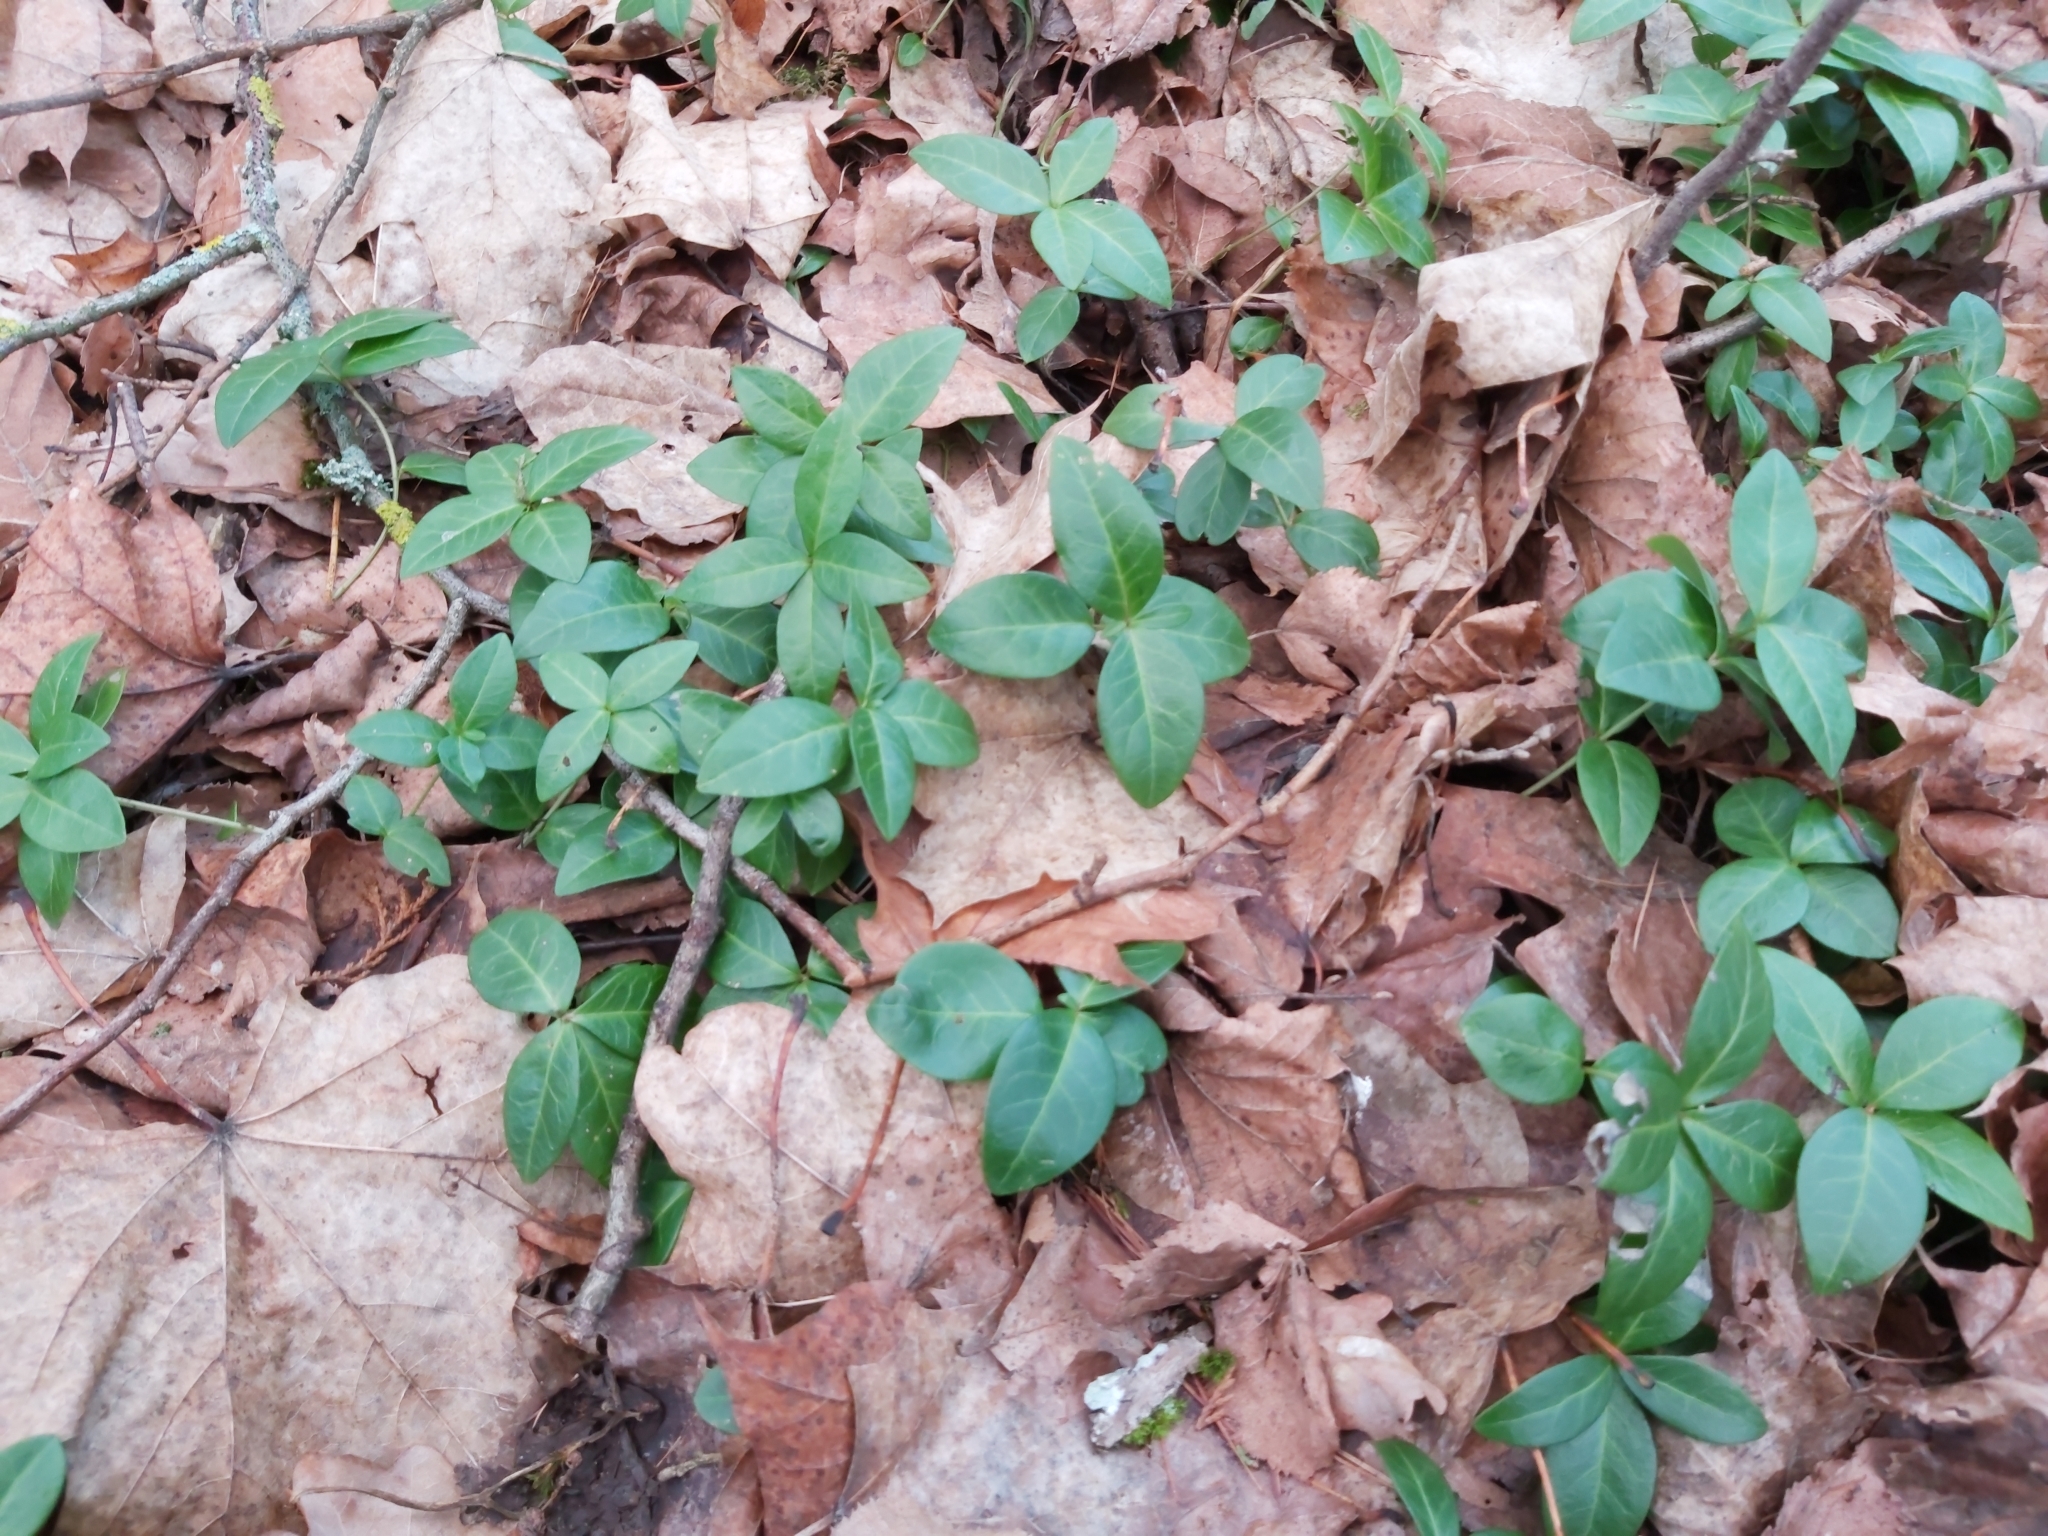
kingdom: Plantae
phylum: Tracheophyta
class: Magnoliopsida
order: Gentianales
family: Apocynaceae
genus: Vinca
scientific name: Vinca minor
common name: Lesser periwinkle
